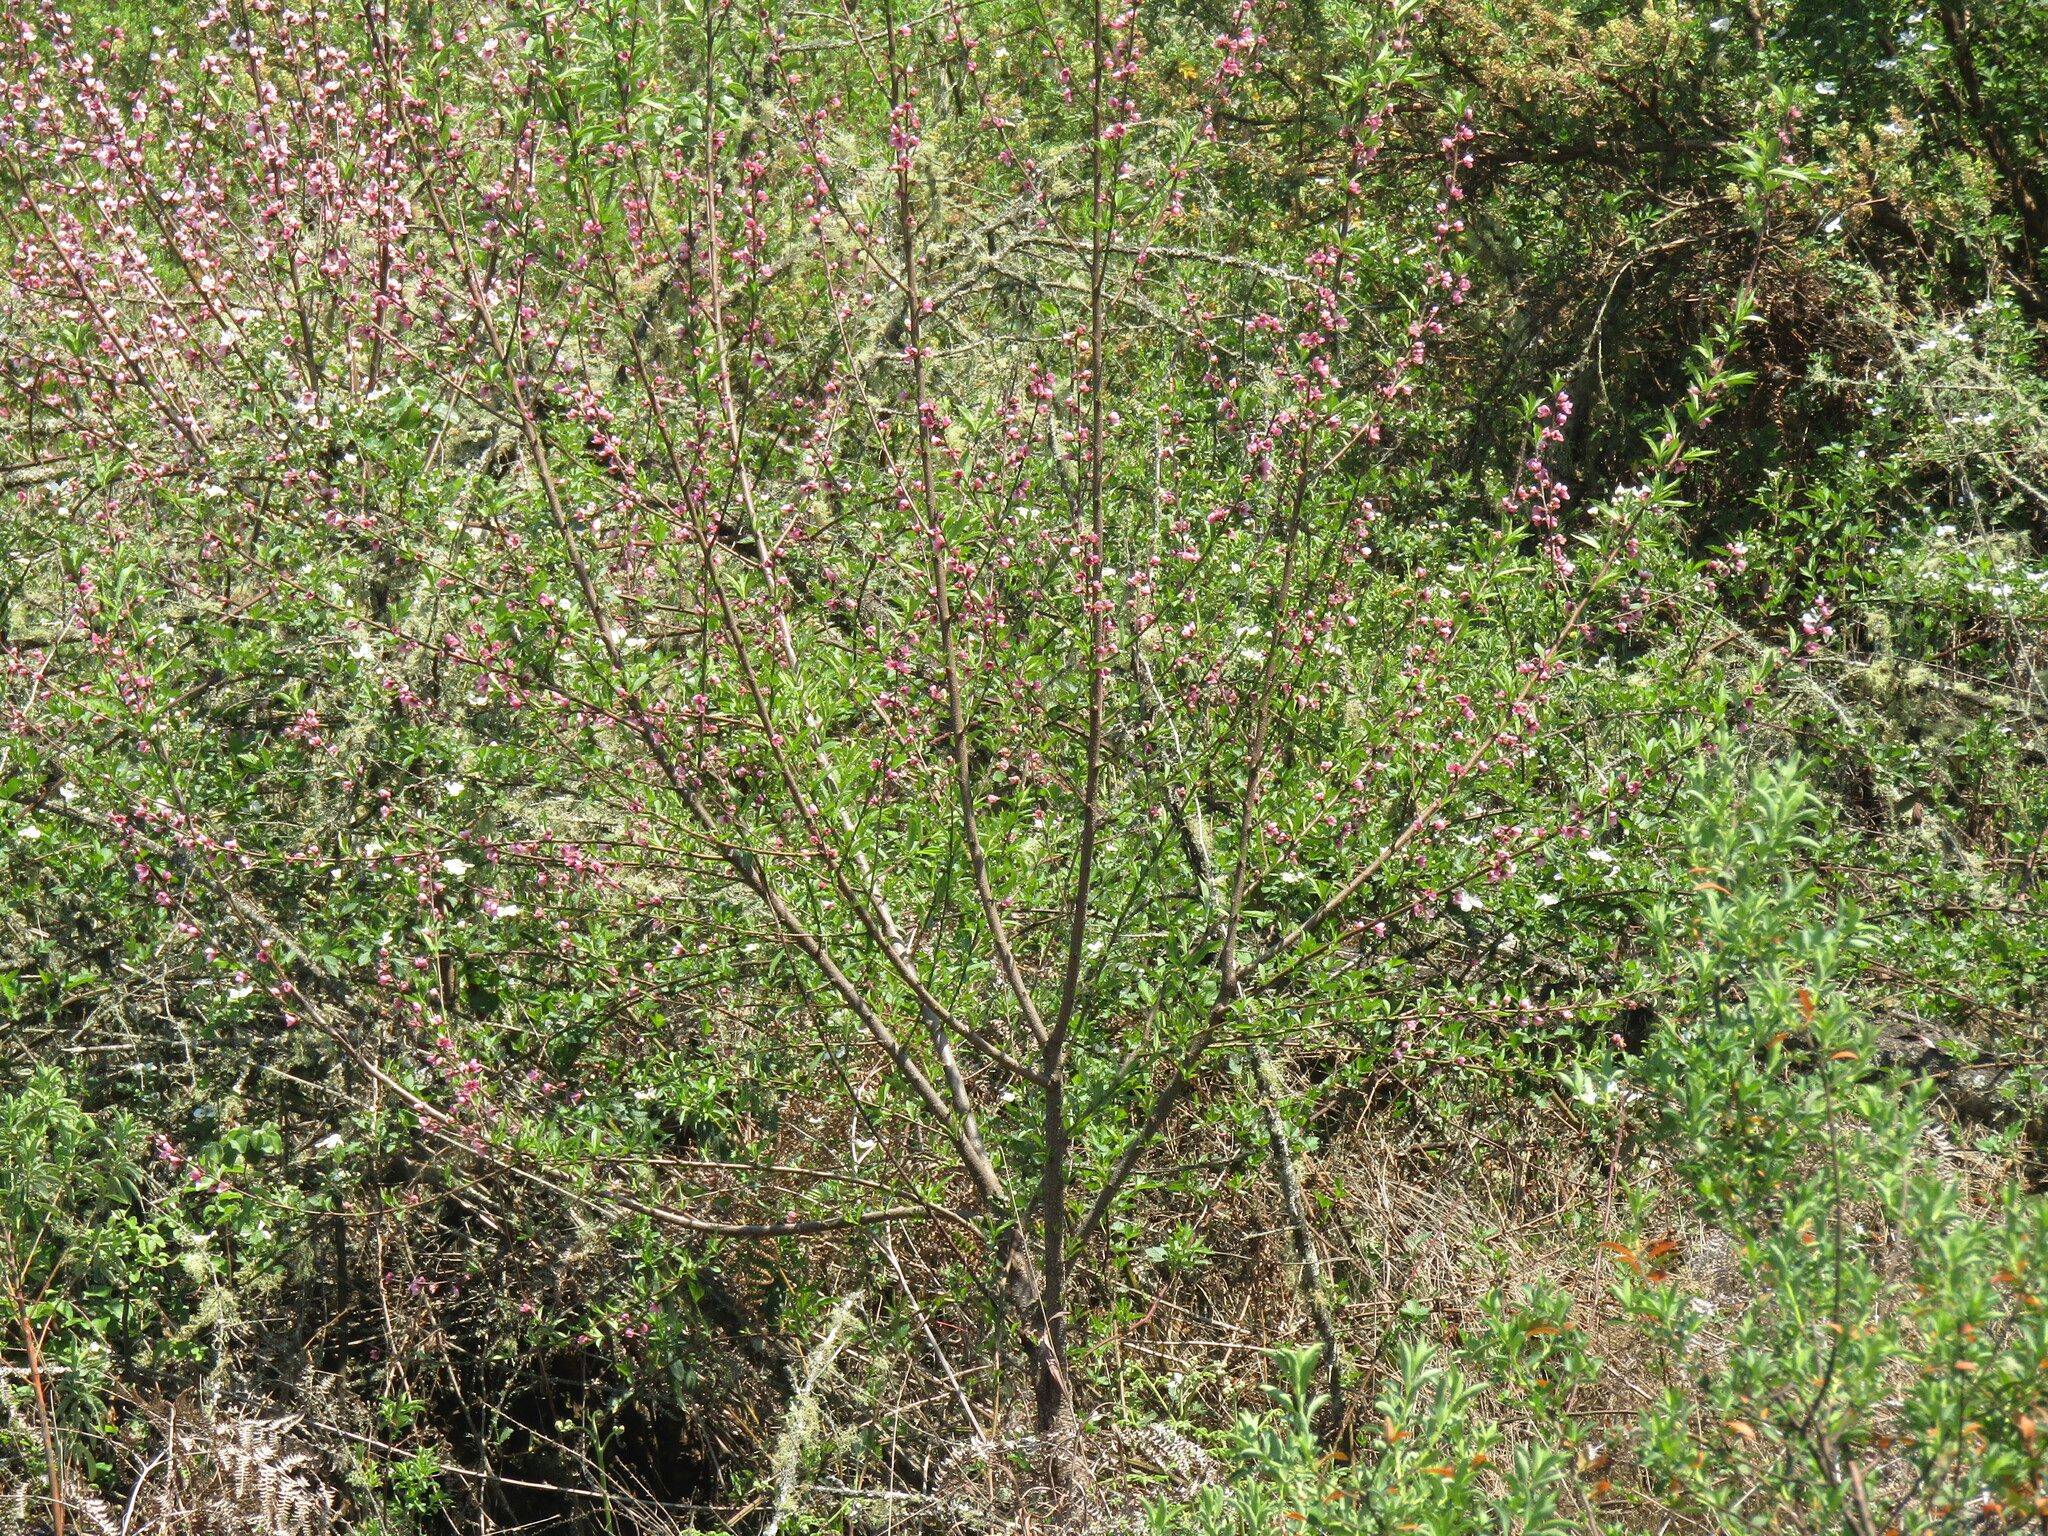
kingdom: Plantae
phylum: Tracheophyta
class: Magnoliopsida
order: Rosales
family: Rosaceae
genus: Prunus
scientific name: Prunus persica
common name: Peach
